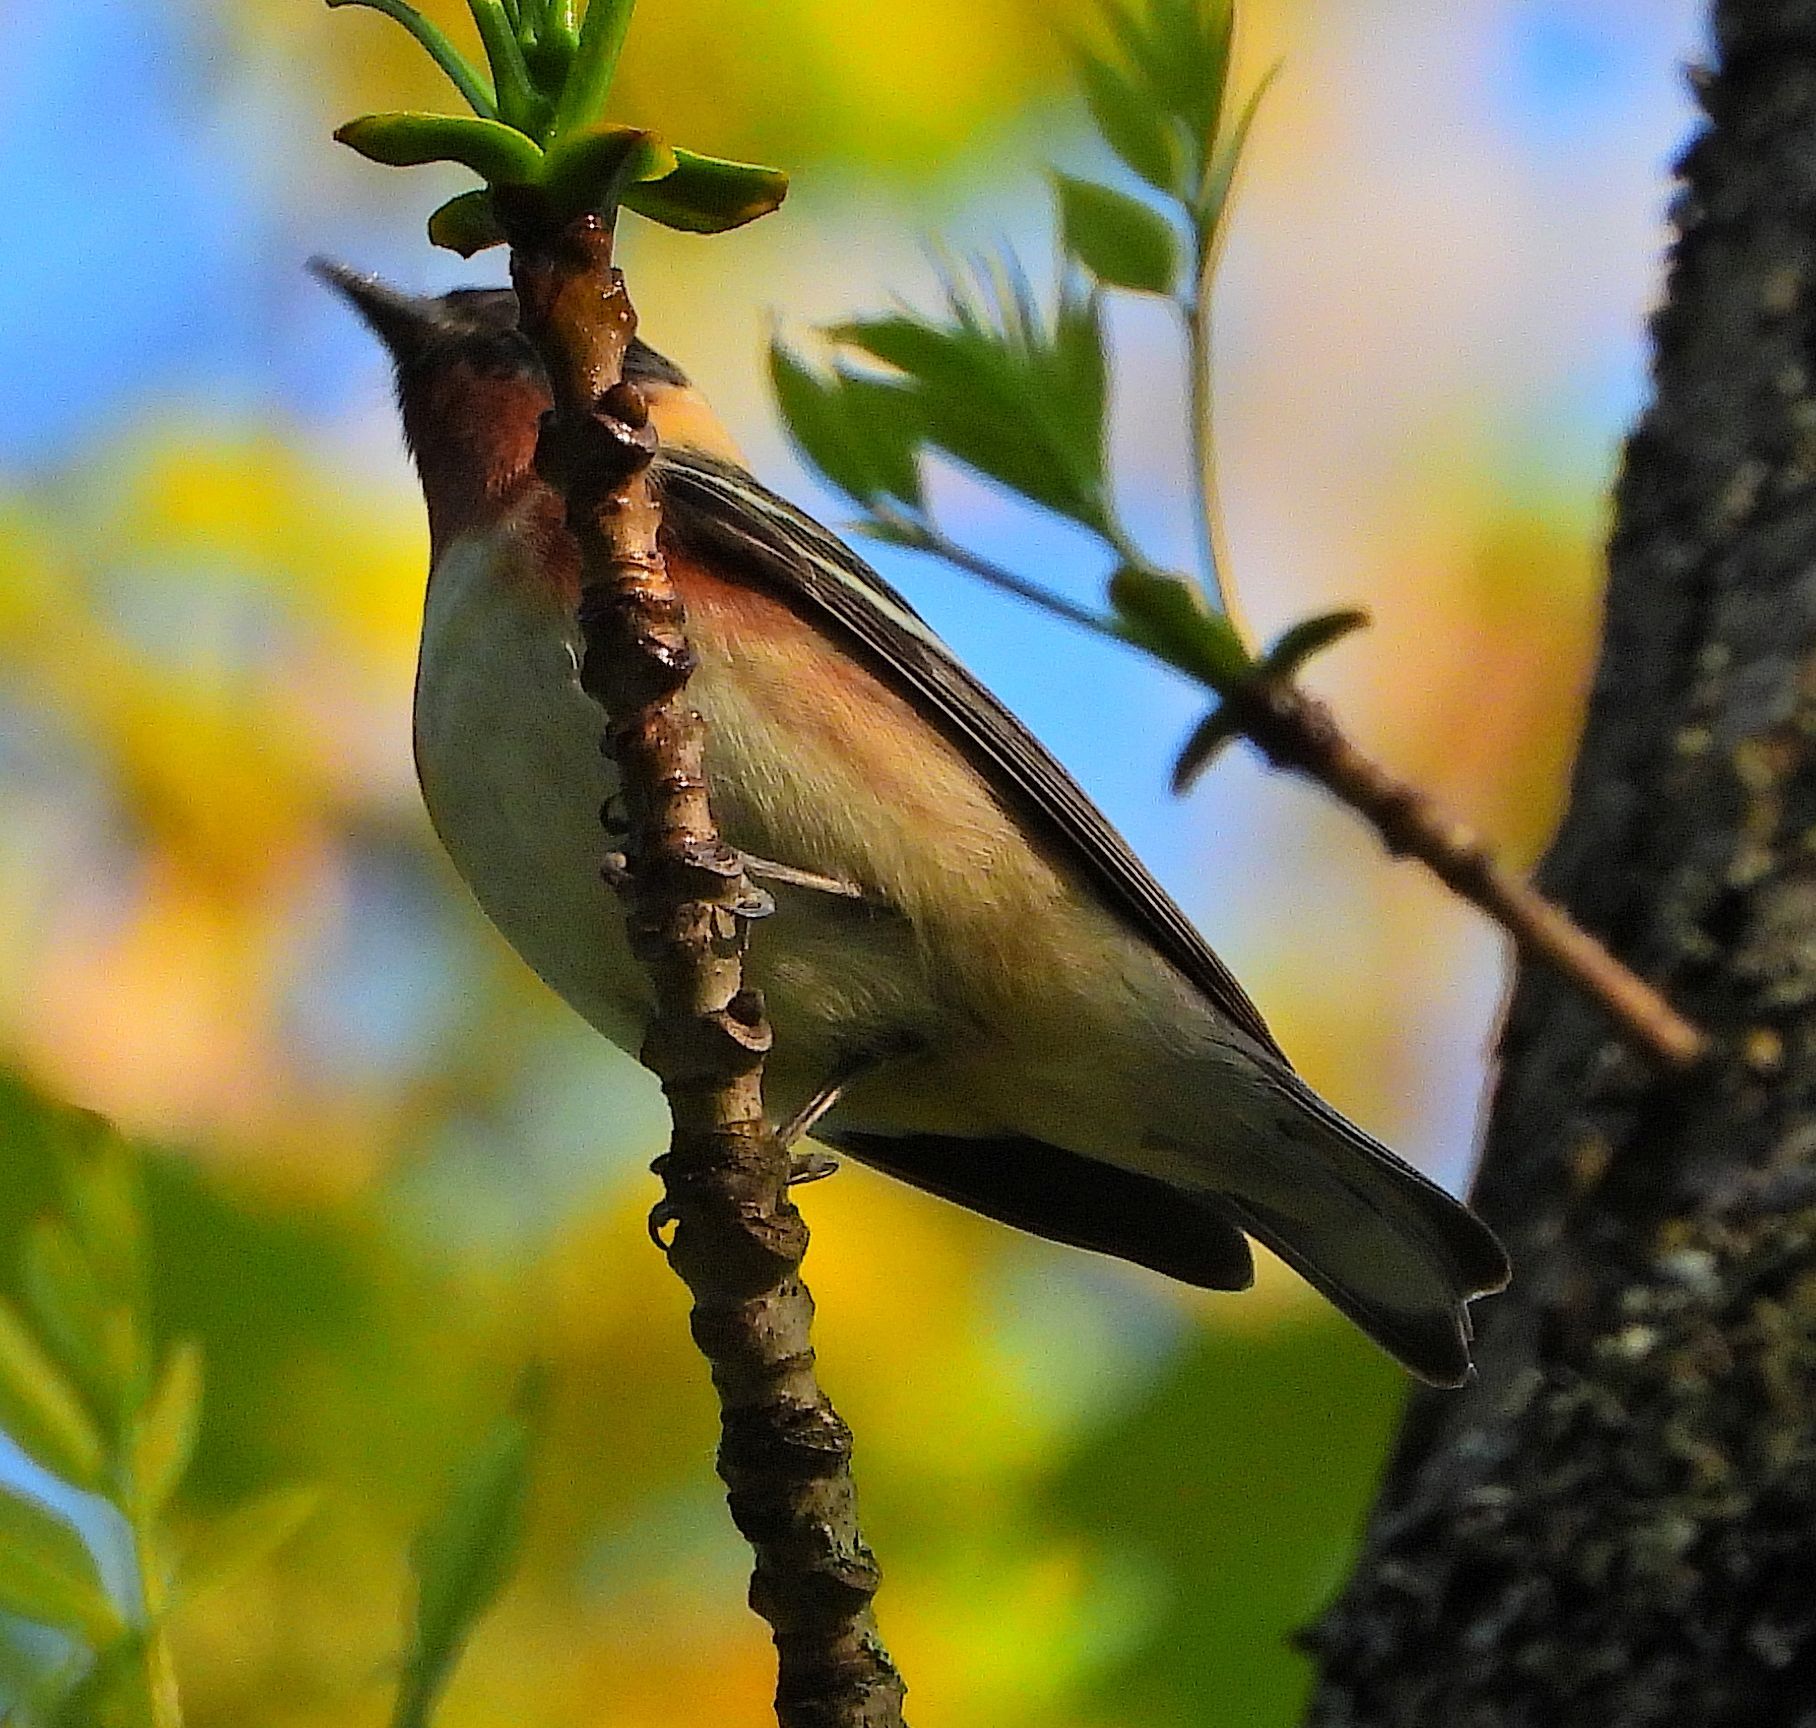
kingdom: Animalia
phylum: Chordata
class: Aves
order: Passeriformes
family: Parulidae
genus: Setophaga
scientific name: Setophaga castanea
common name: Bay-breasted warbler
